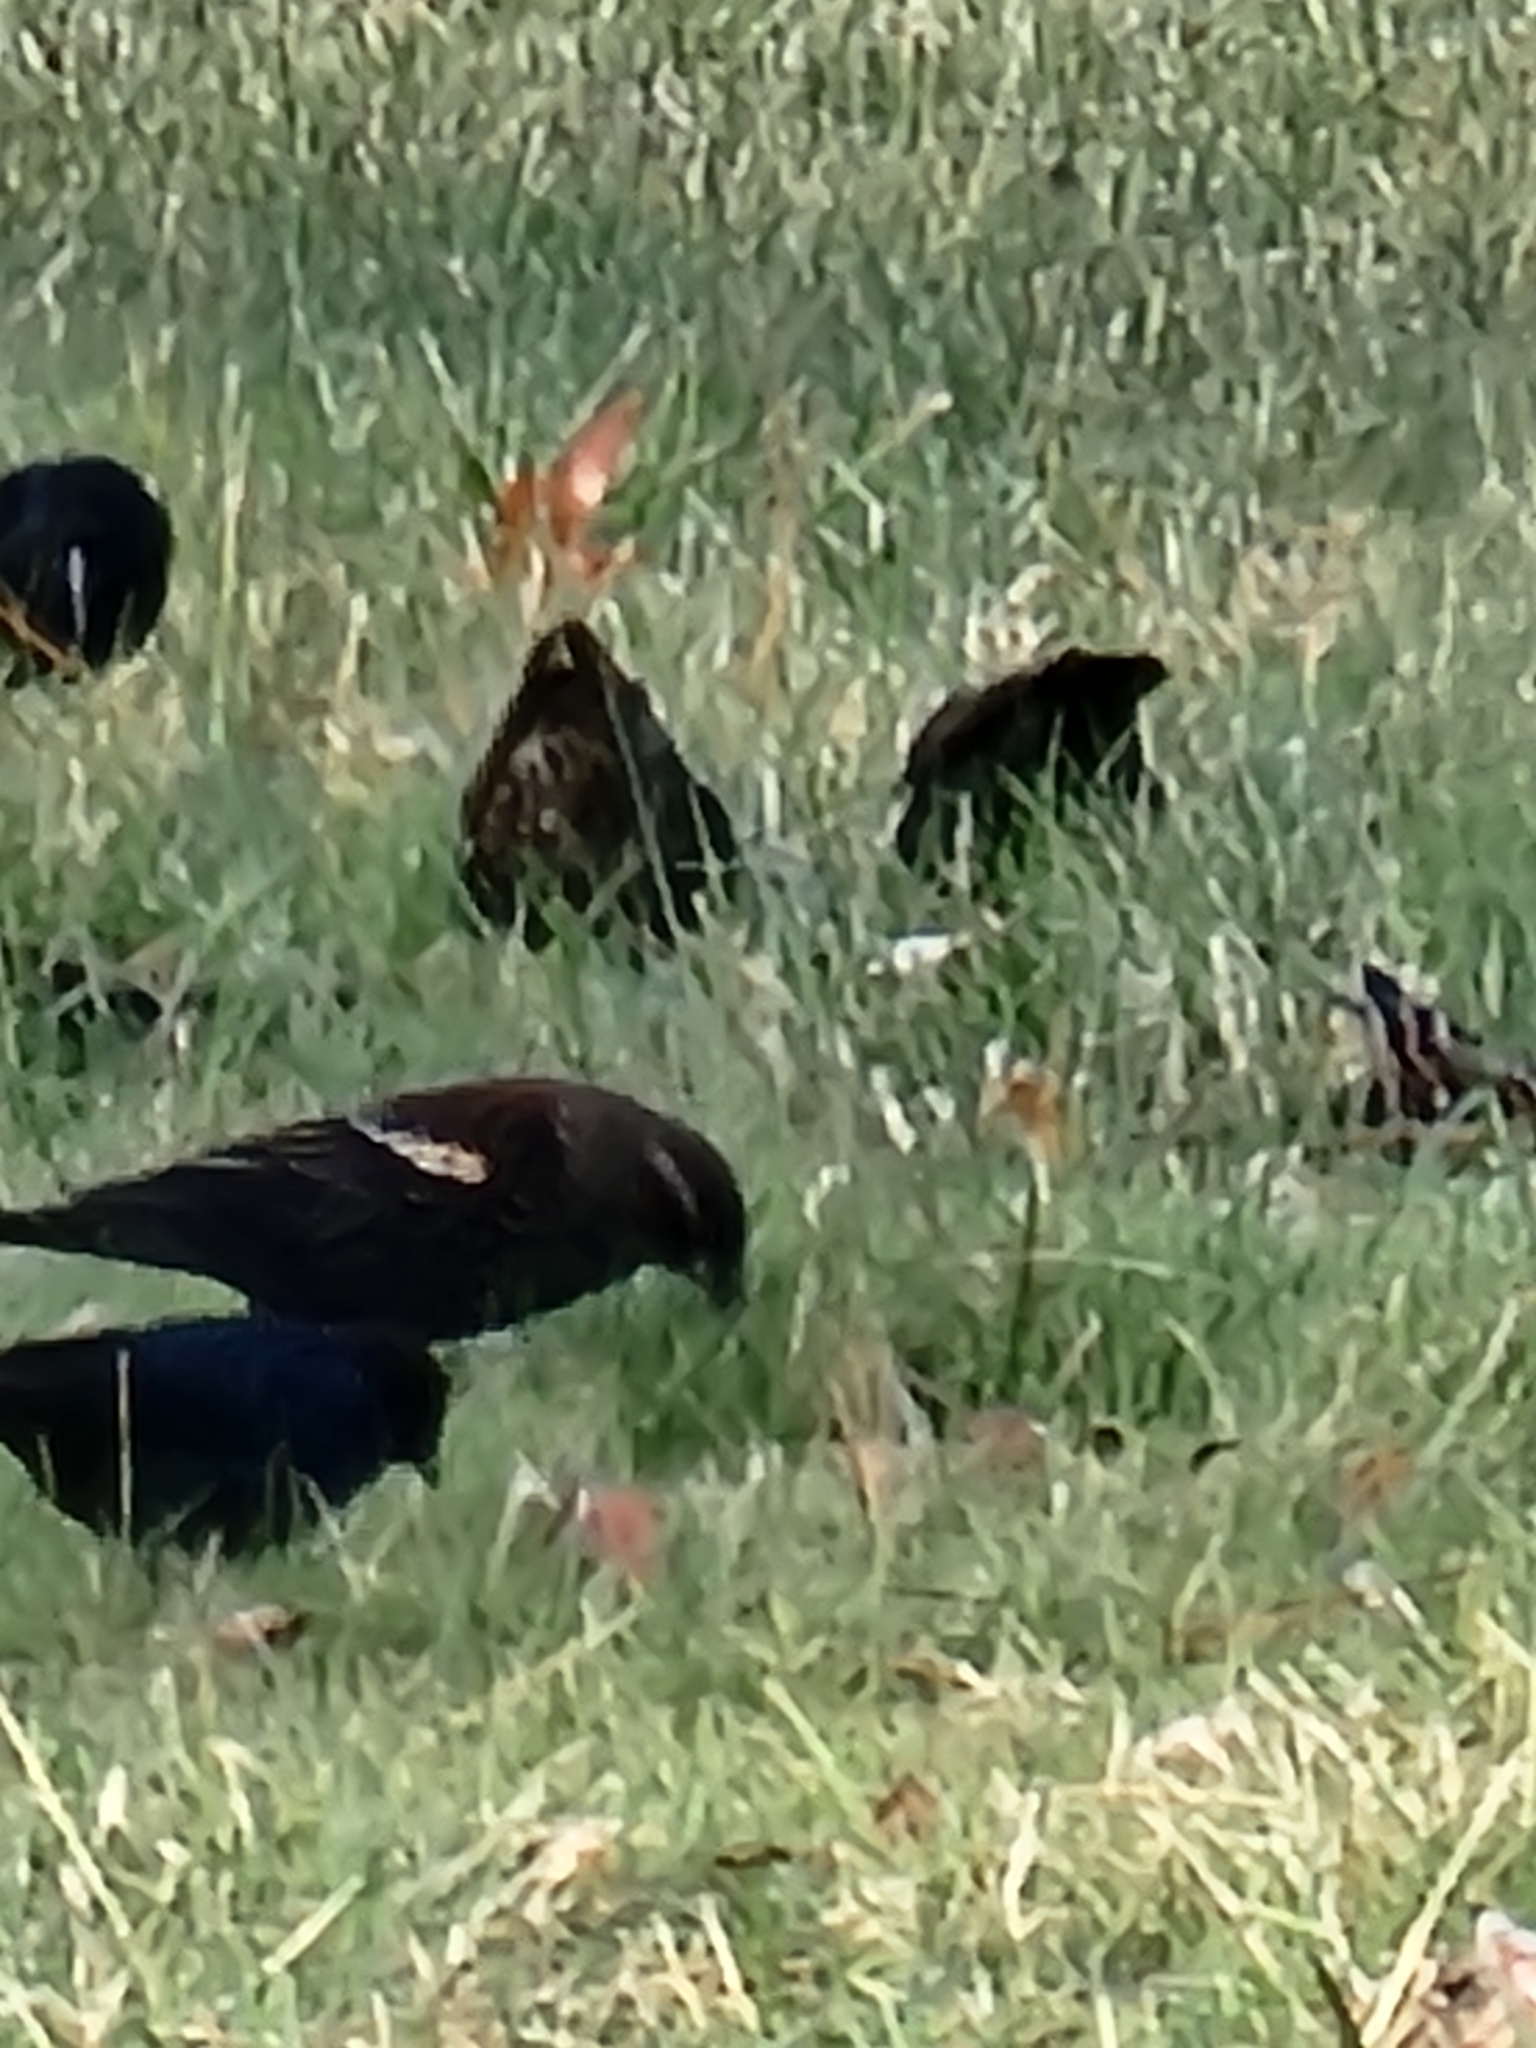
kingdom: Animalia
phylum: Chordata
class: Aves
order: Passeriformes
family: Icteridae
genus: Agelaius
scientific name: Agelaius phoeniceus
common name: Red-winged blackbird
